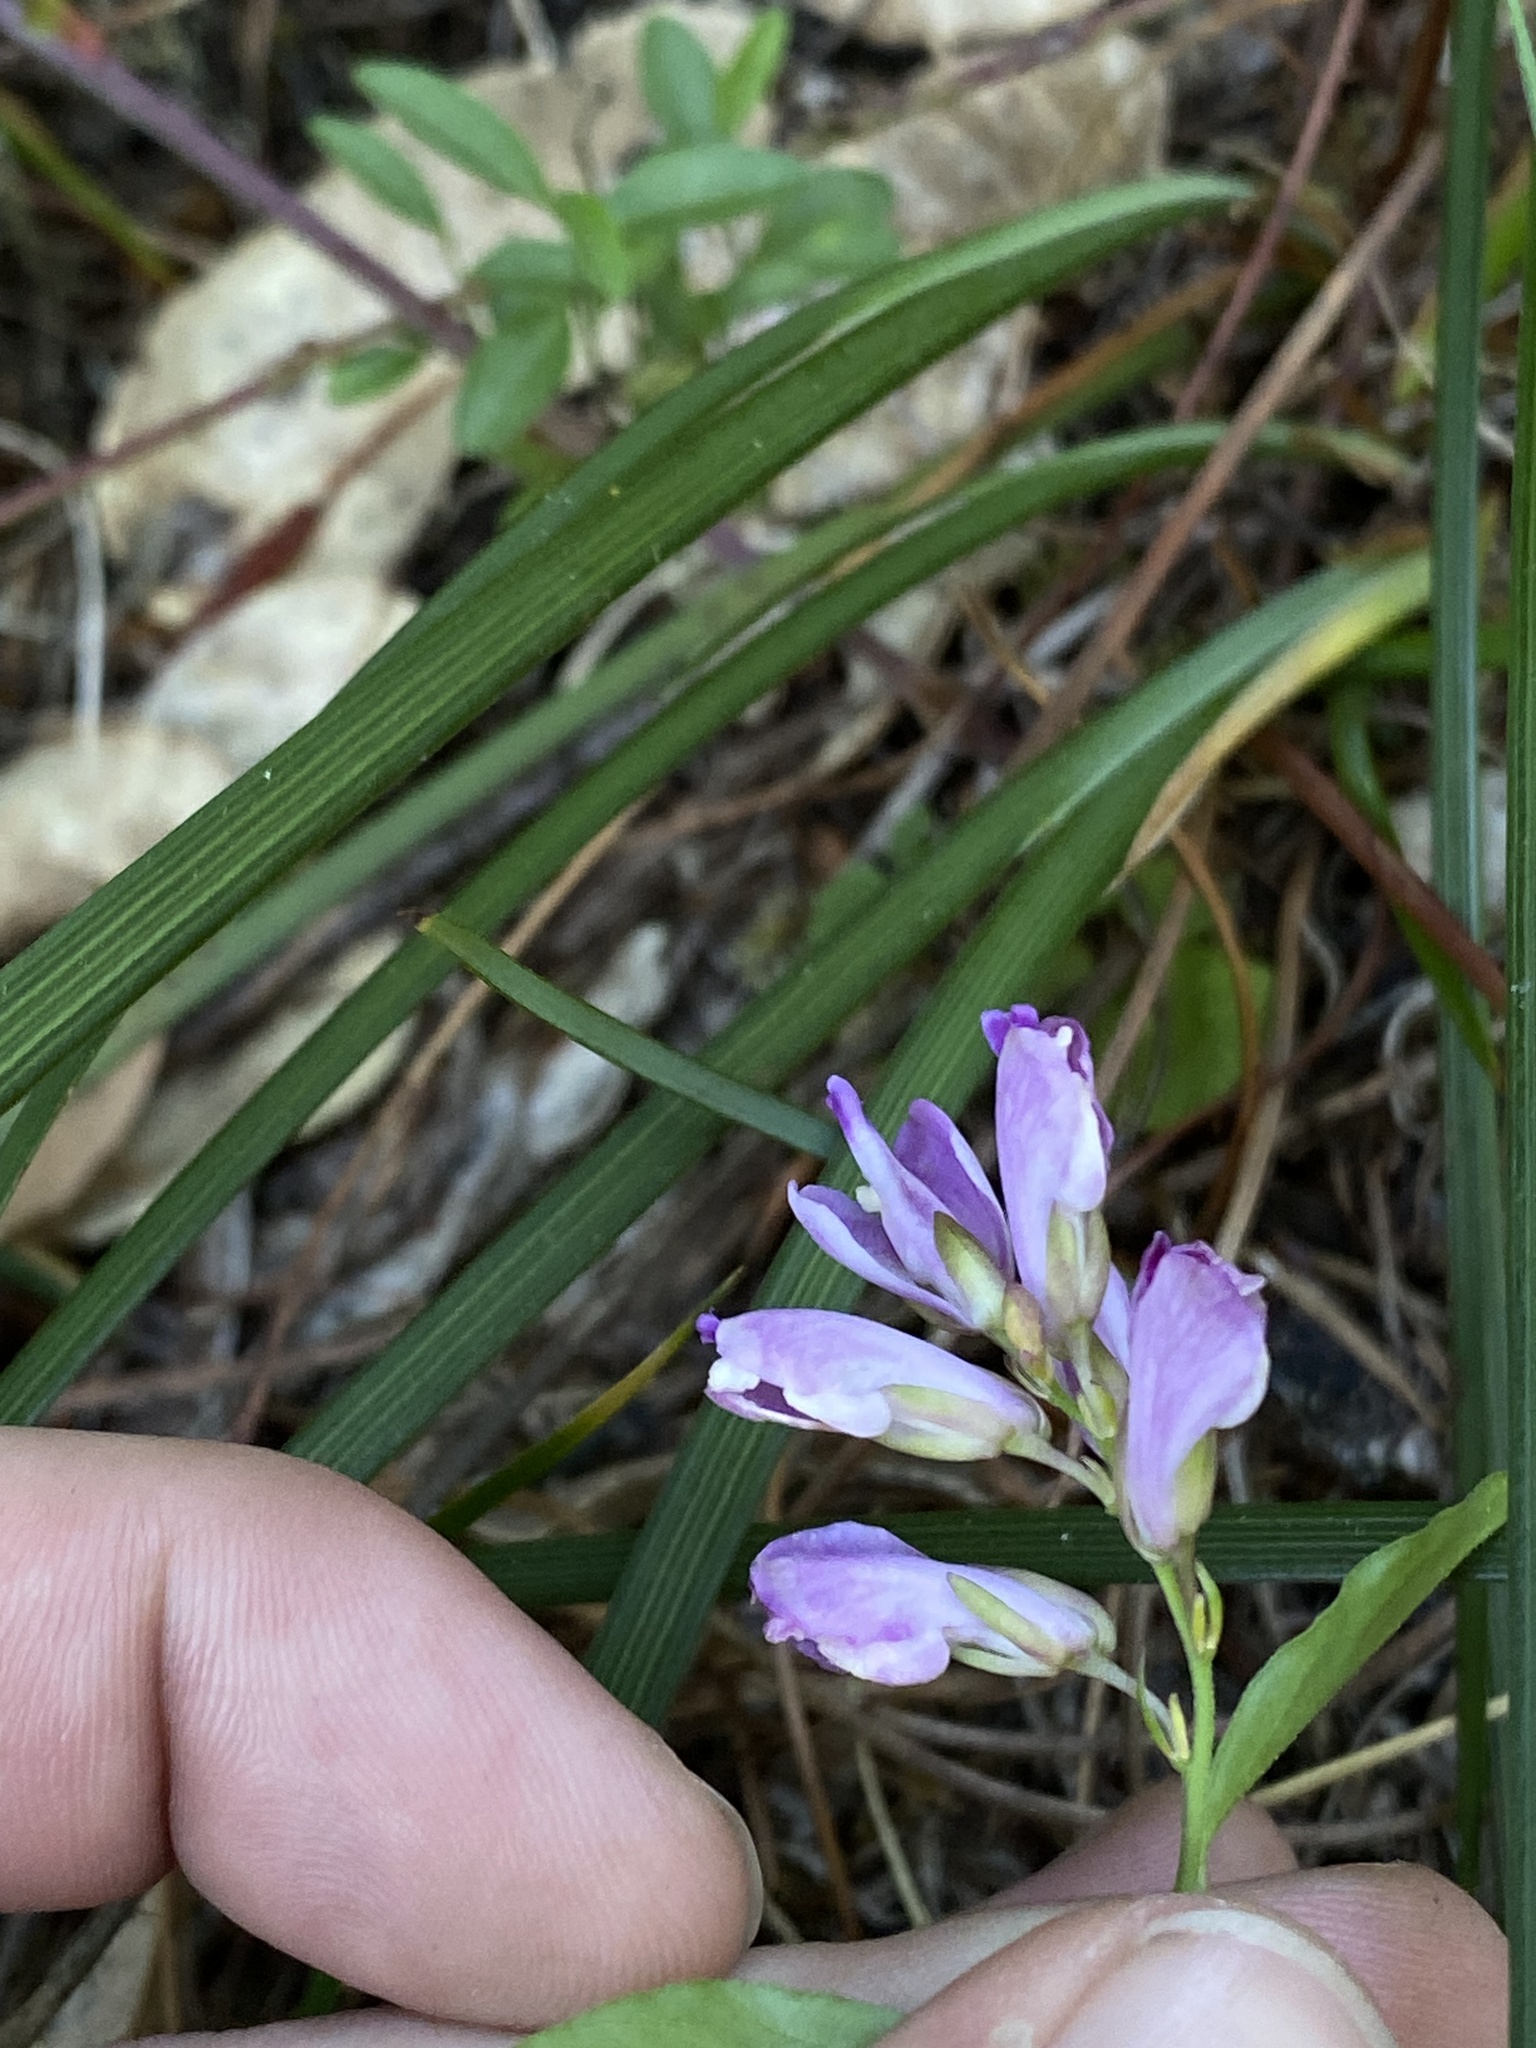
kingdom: Plantae
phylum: Tracheophyta
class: Magnoliopsida
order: Fabales
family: Polygalaceae
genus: Rhinotropis
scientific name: Rhinotropis californica
